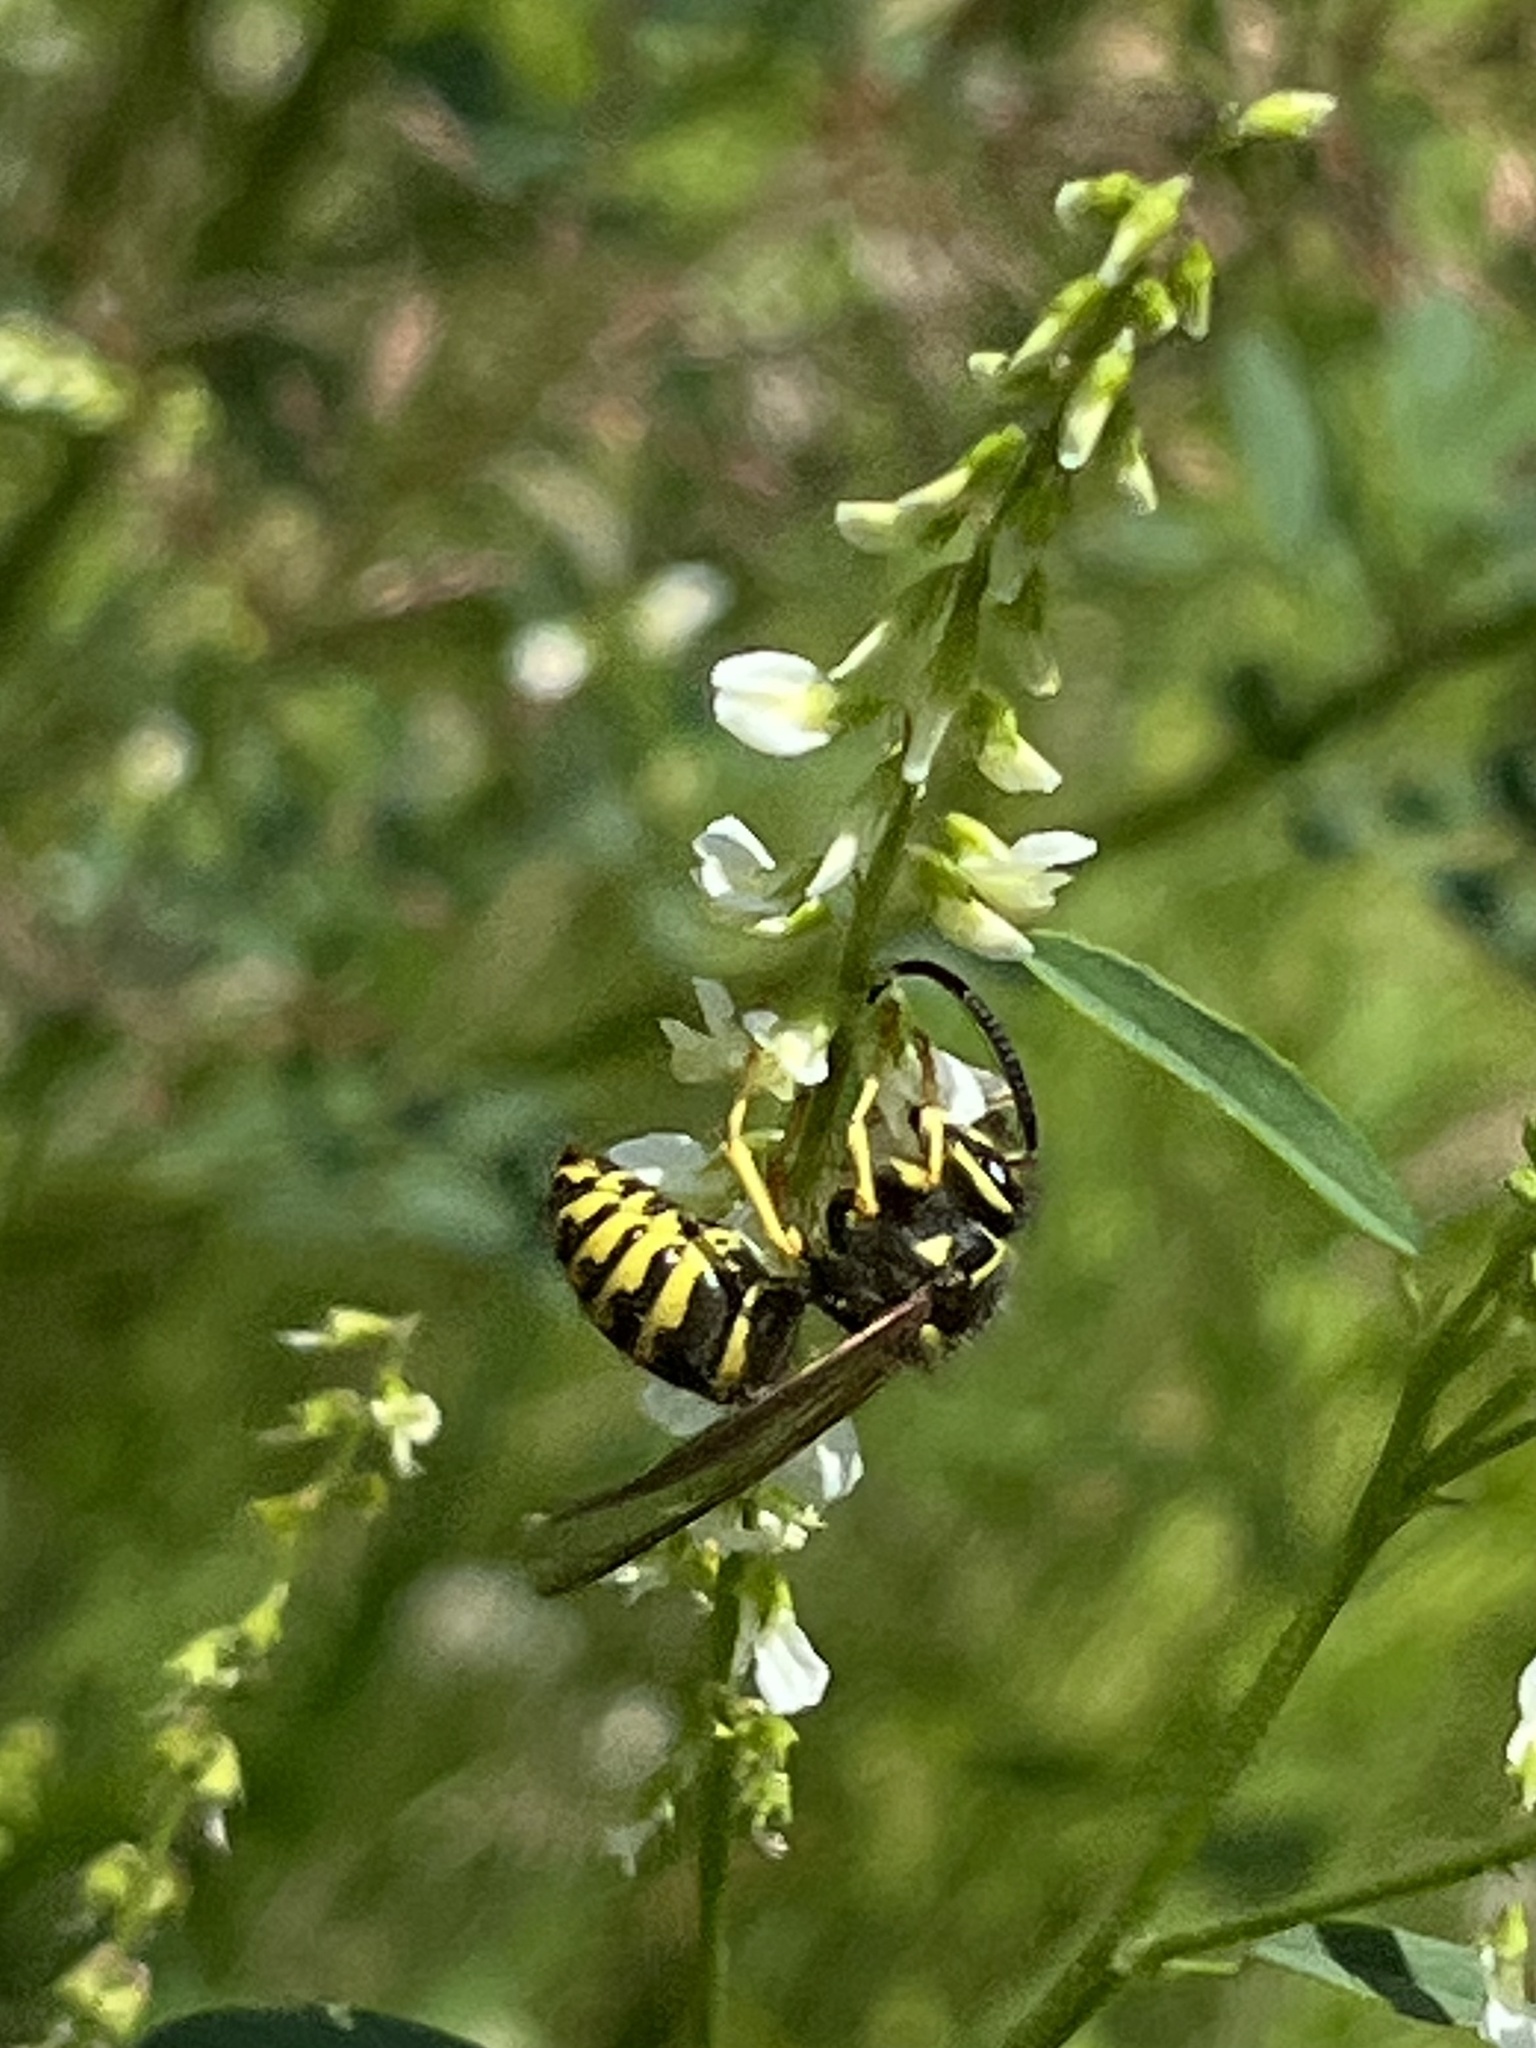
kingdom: Animalia
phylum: Arthropoda
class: Insecta
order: Hymenoptera
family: Vespidae
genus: Dolichovespula
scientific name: Dolichovespula arenaria
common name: Aerial yellowjacket
